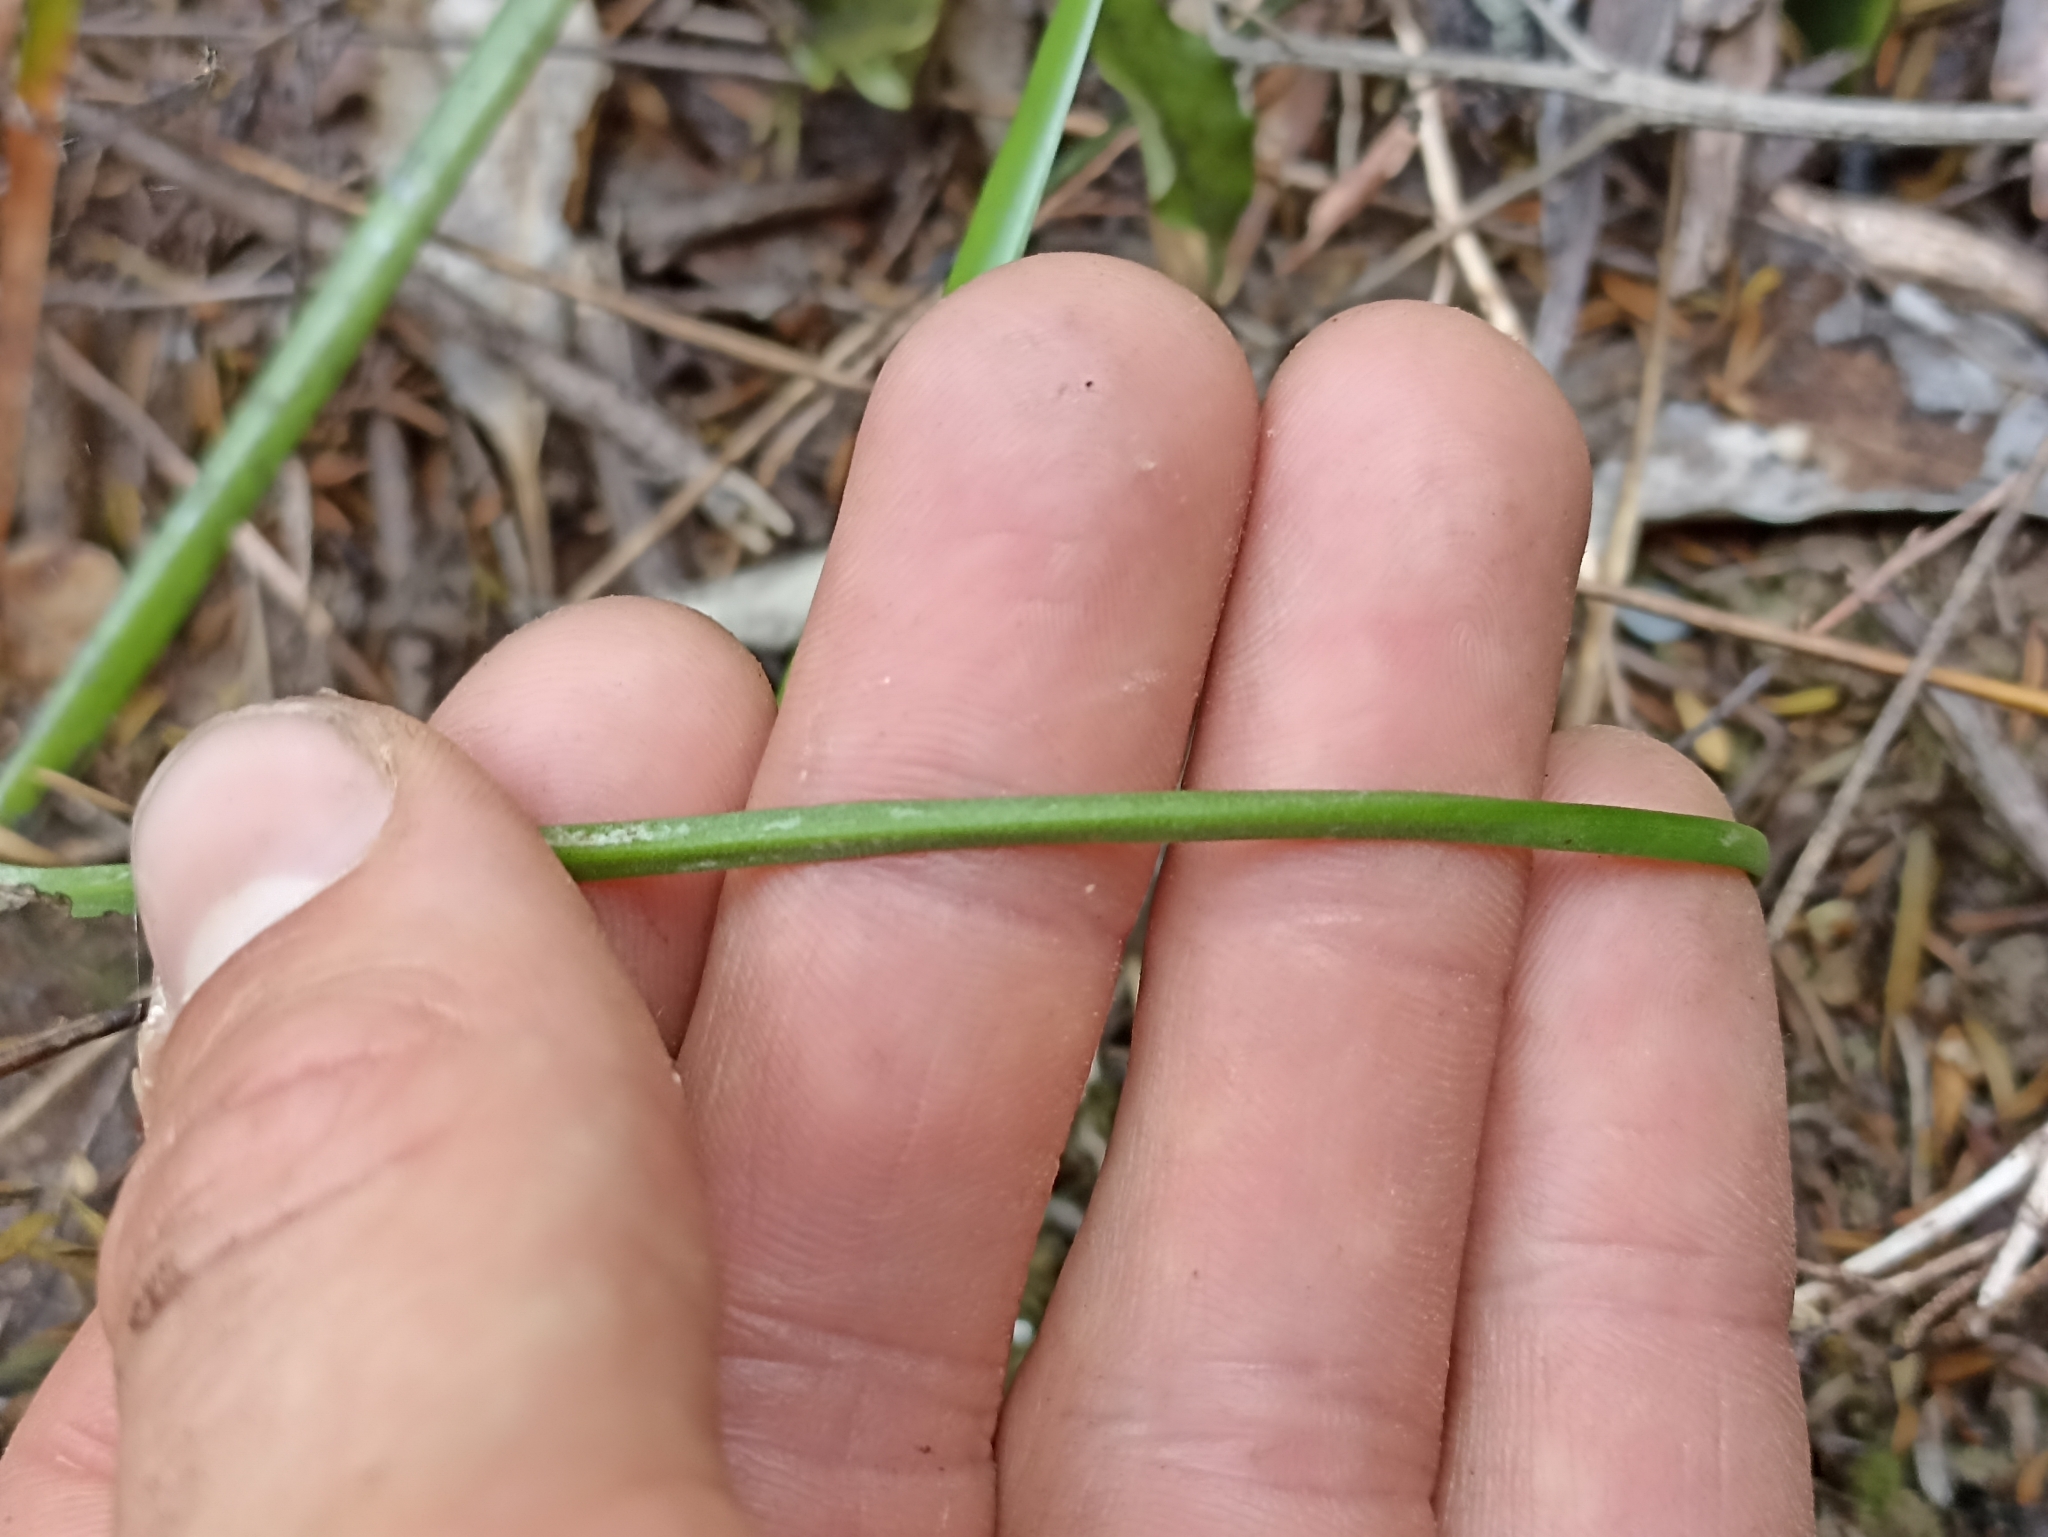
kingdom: Plantae
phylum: Tracheophyta
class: Liliopsida
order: Asparagales
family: Orchidaceae
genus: Thelymitra
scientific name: Thelymitra tholiformis
